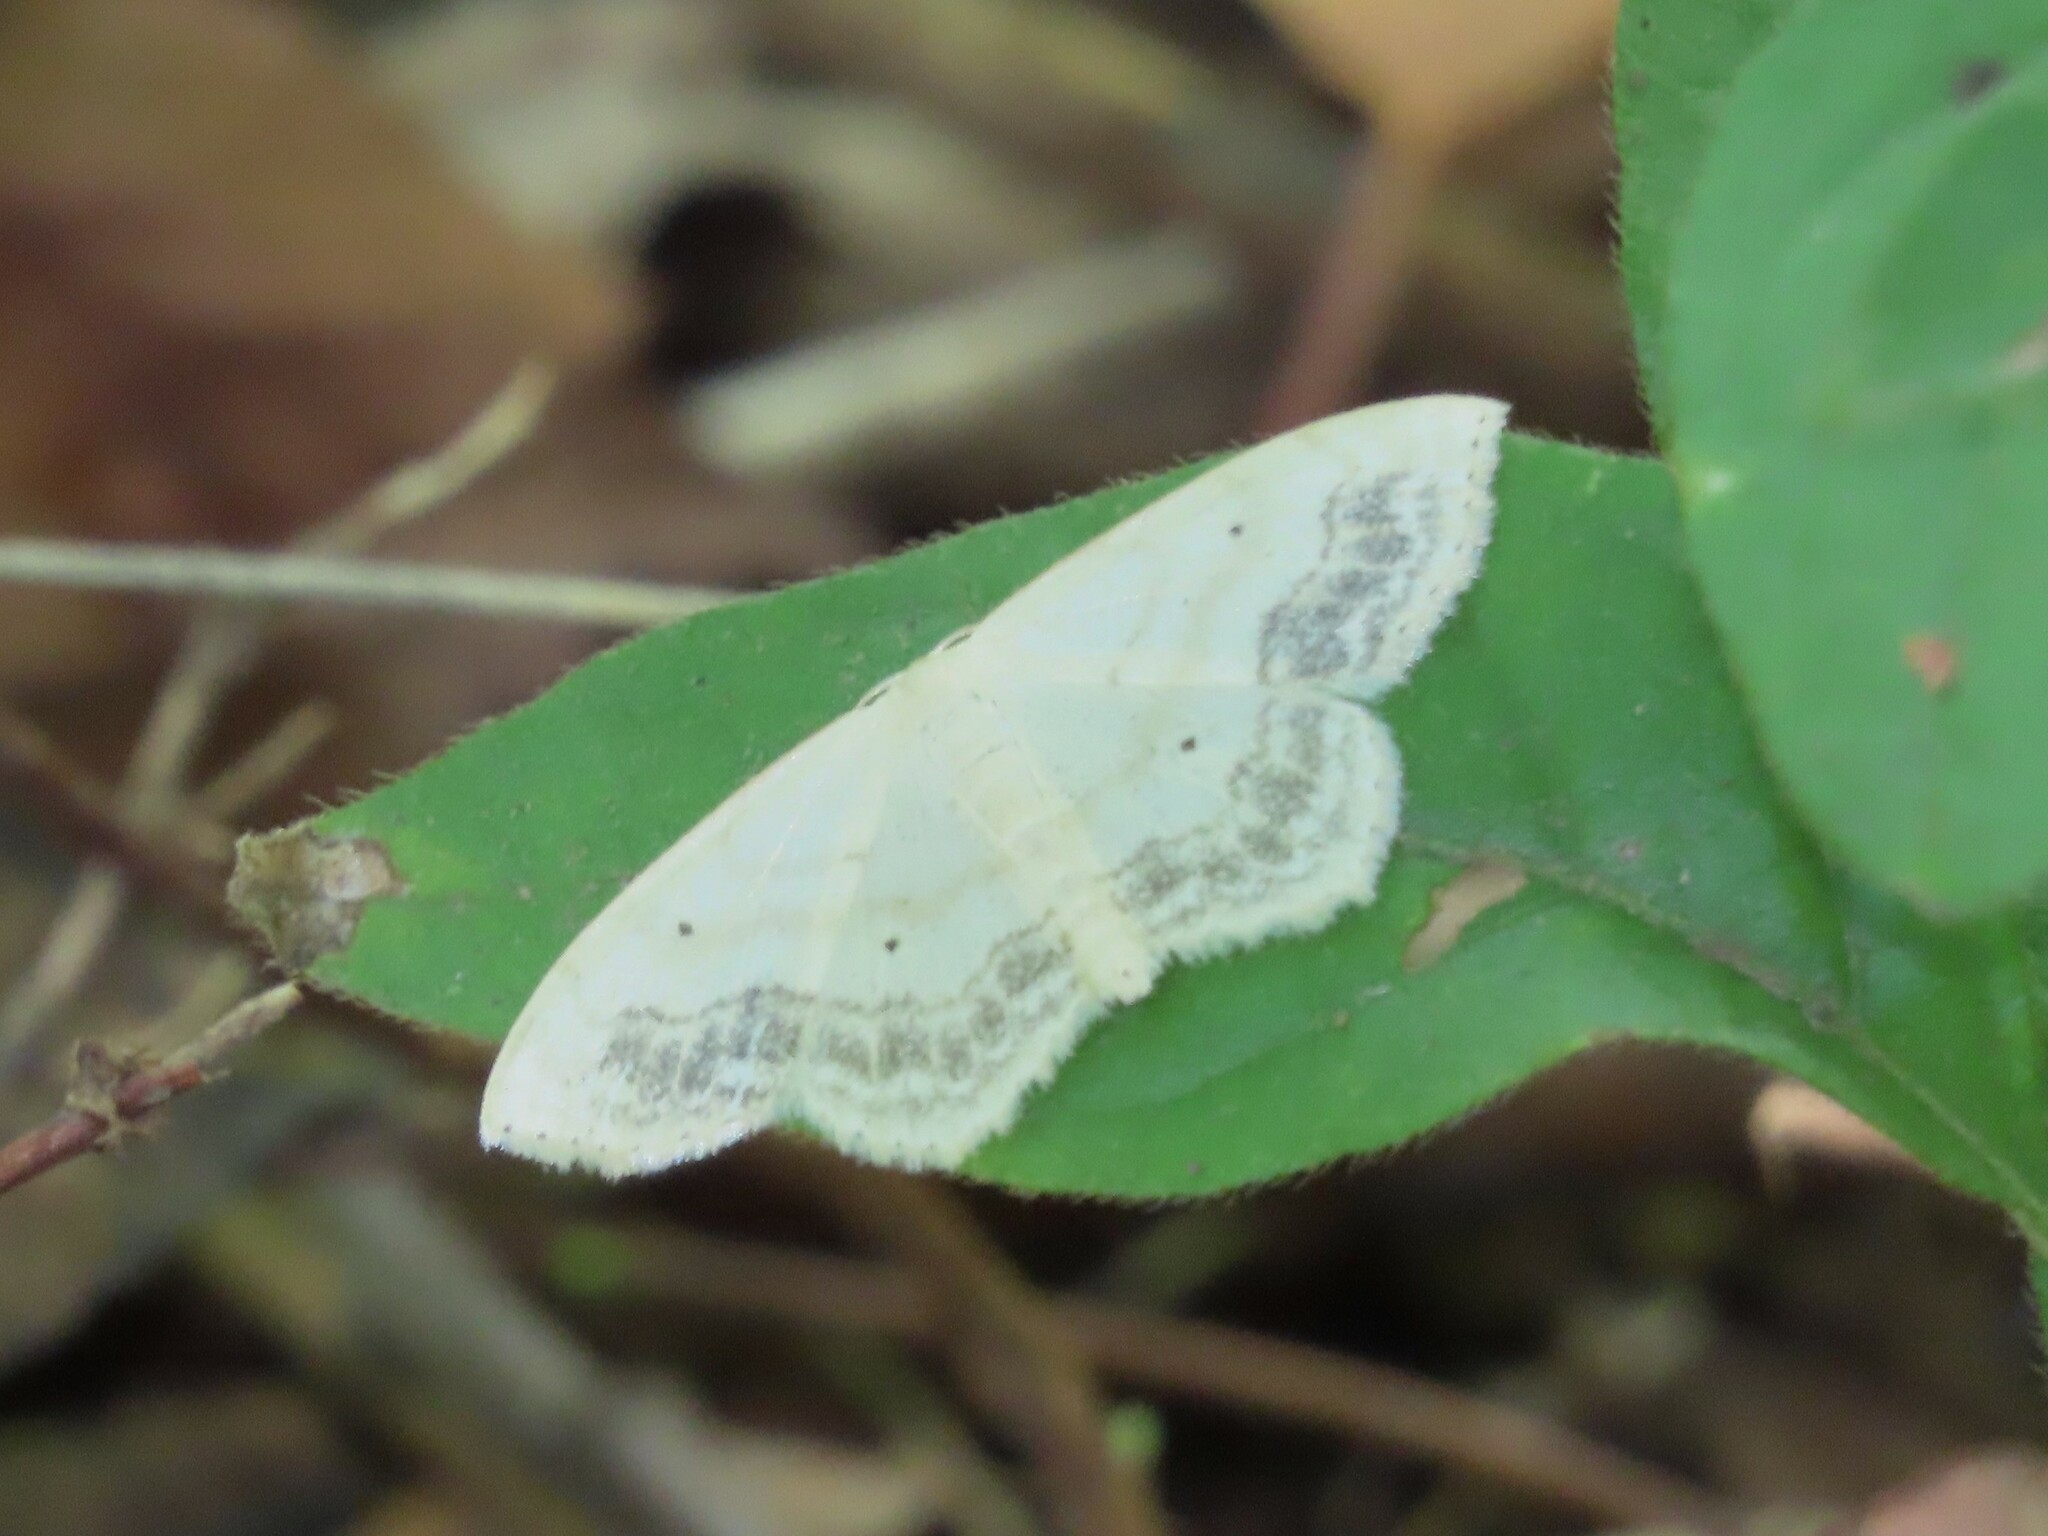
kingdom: Animalia
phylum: Arthropoda
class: Insecta
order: Lepidoptera
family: Geometridae
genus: Scopula
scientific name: Scopula limboundata
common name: Large lace border
